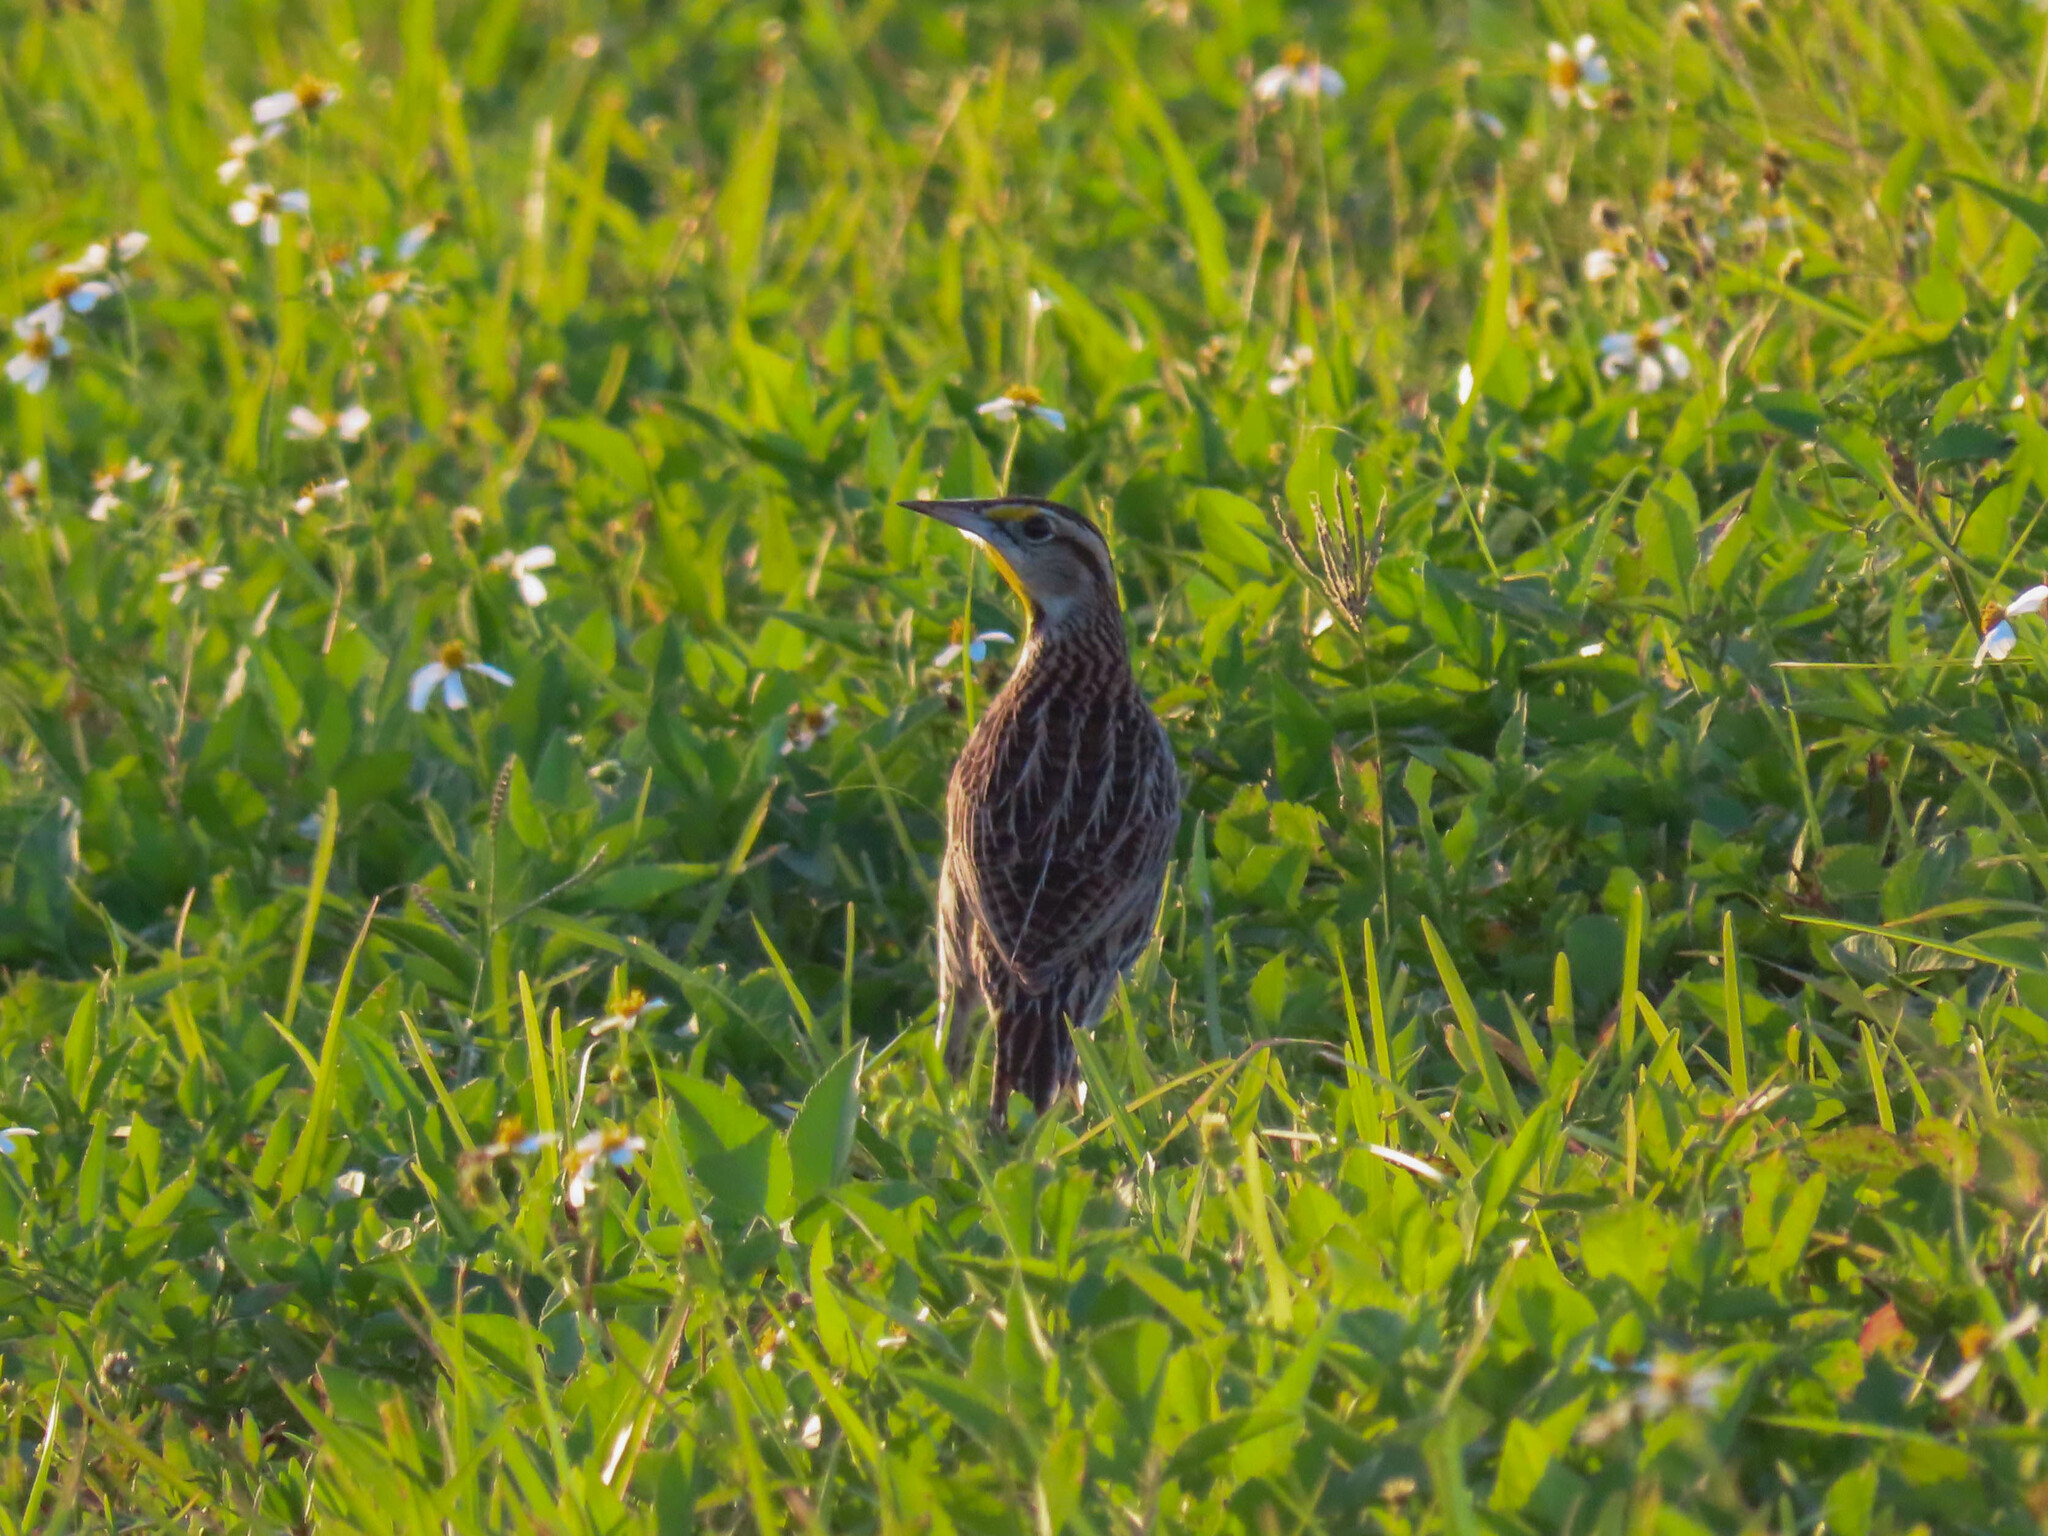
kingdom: Animalia
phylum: Chordata
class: Aves
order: Passeriformes
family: Icteridae
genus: Sturnella
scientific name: Sturnella magna
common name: Eastern meadowlark
